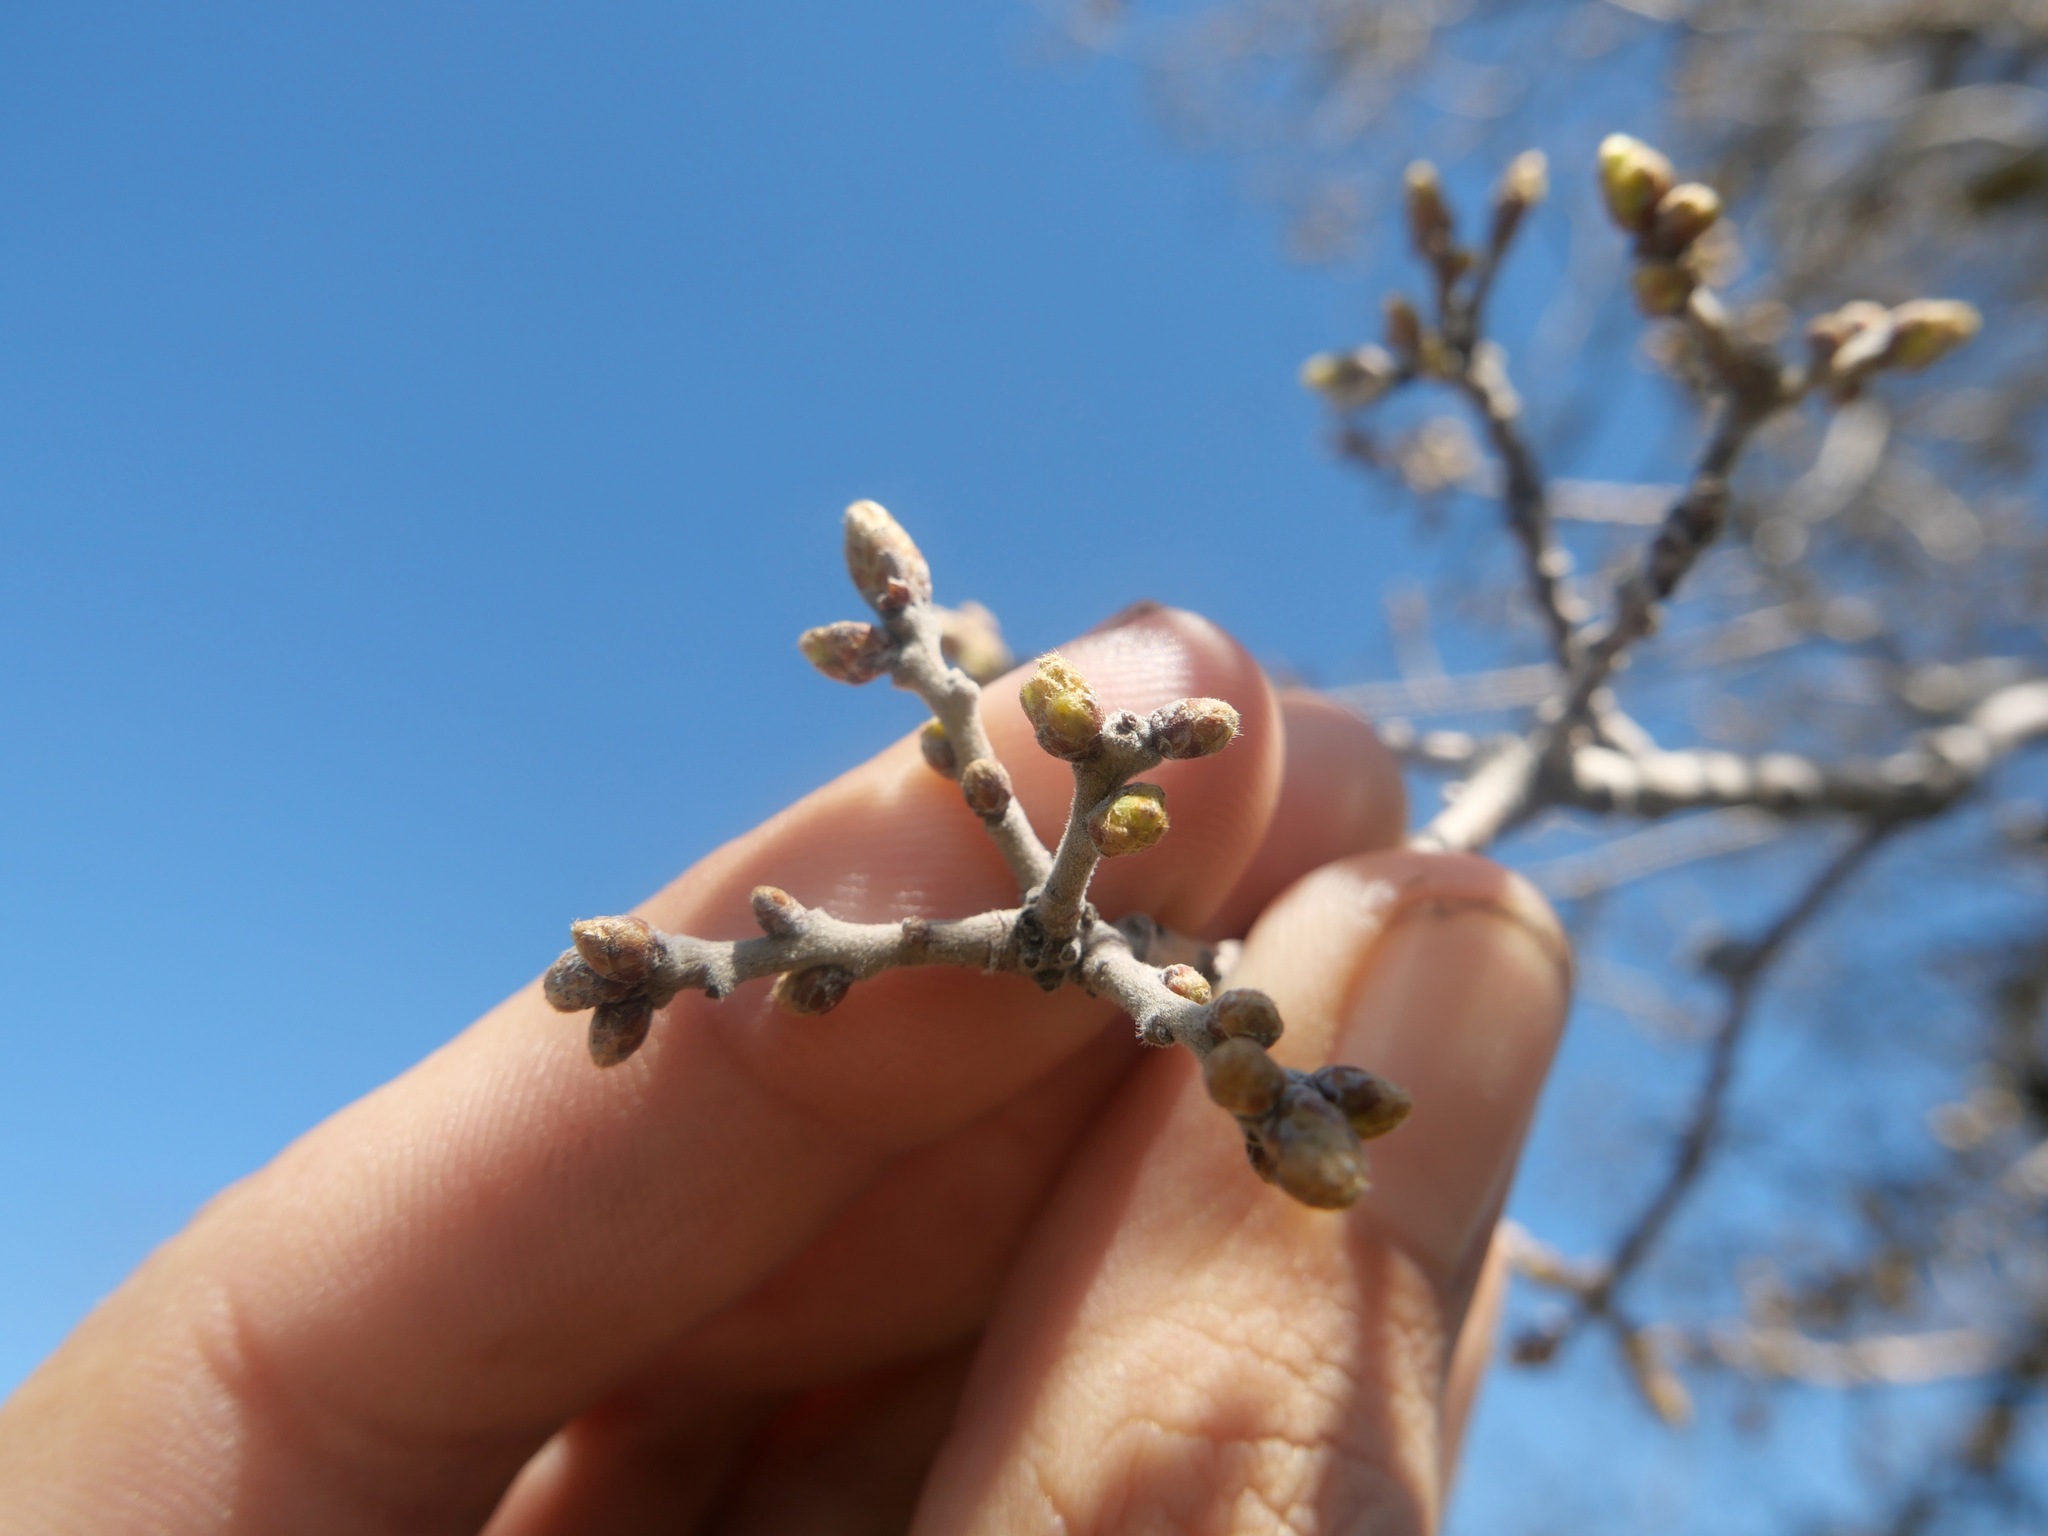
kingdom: Plantae
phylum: Tracheophyta
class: Magnoliopsida
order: Fagales
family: Fagaceae
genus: Quercus
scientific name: Quercus douglasii
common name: Blue oak
